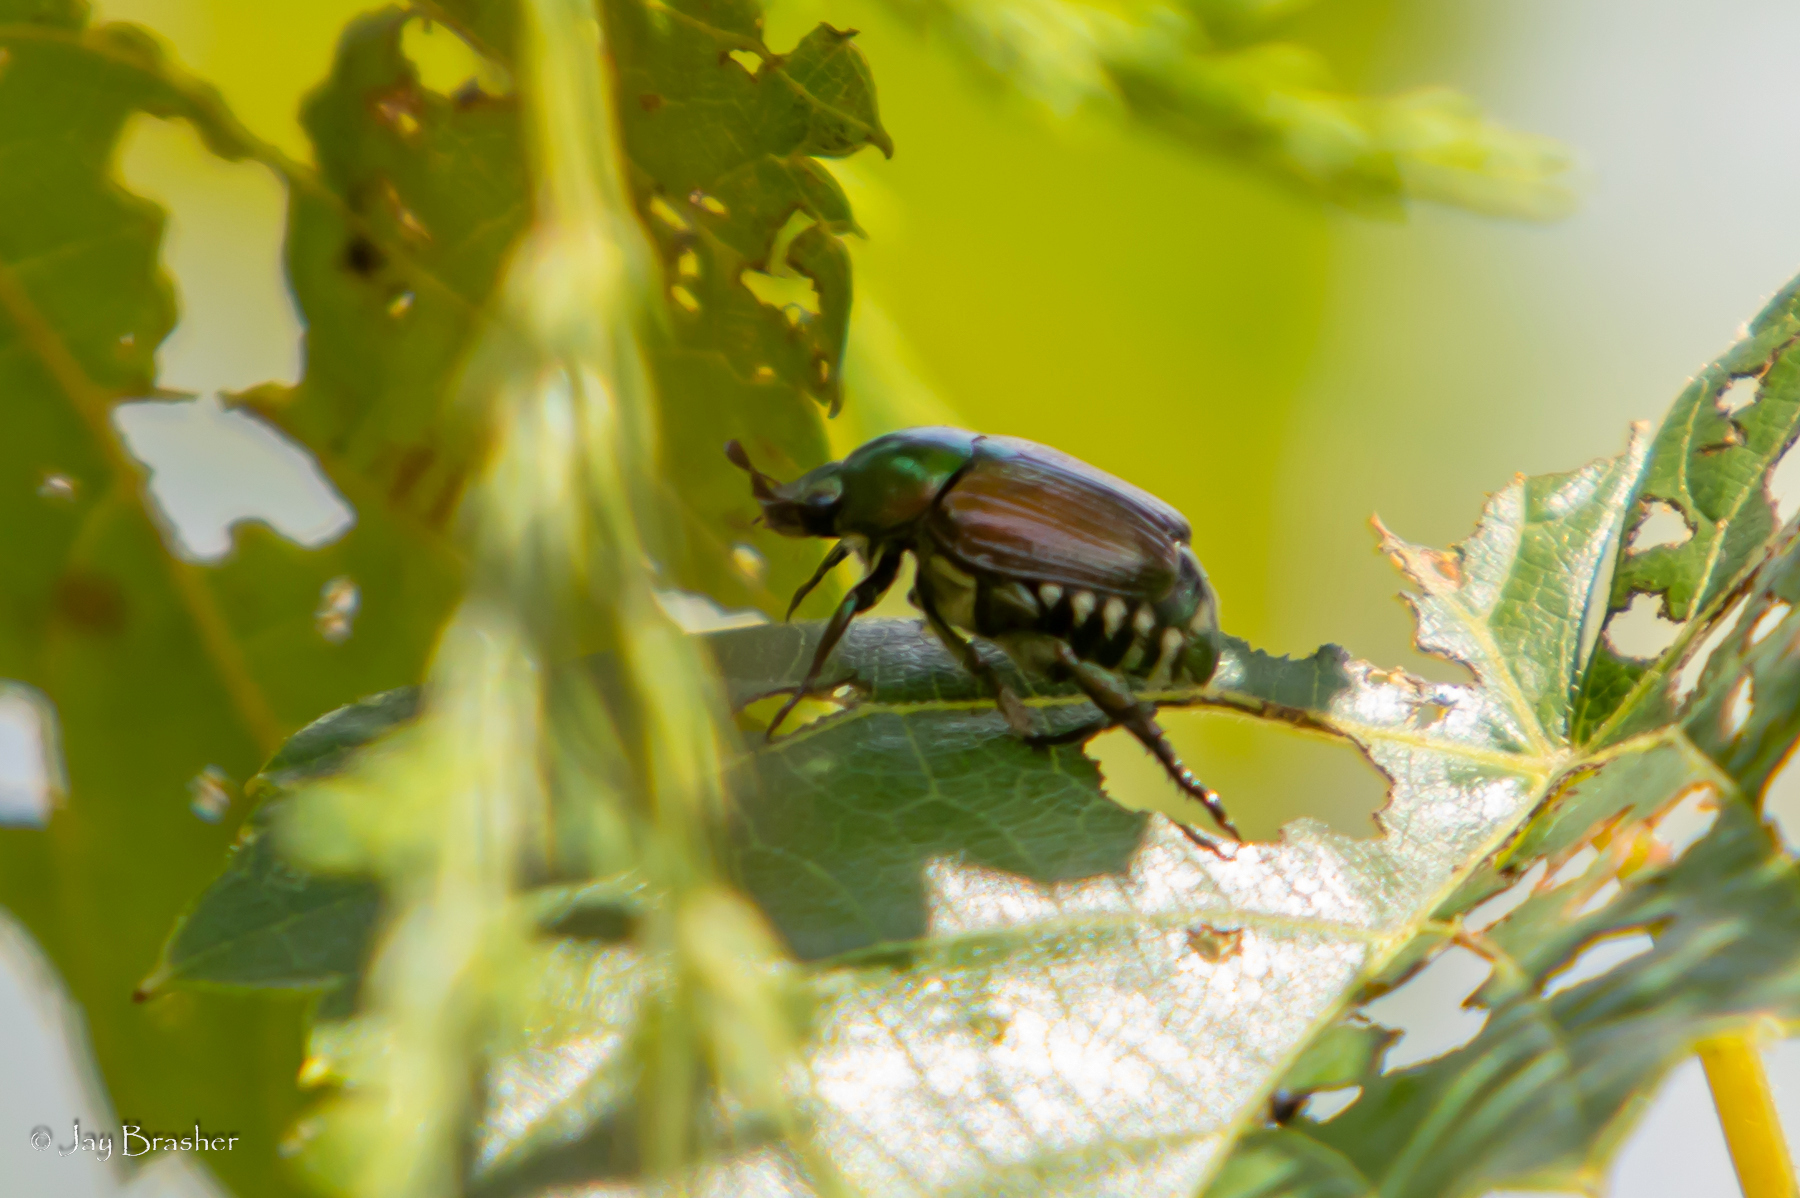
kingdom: Animalia
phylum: Arthropoda
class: Insecta
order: Coleoptera
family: Scarabaeidae
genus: Popillia
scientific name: Popillia japonica
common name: Japanese beetle
